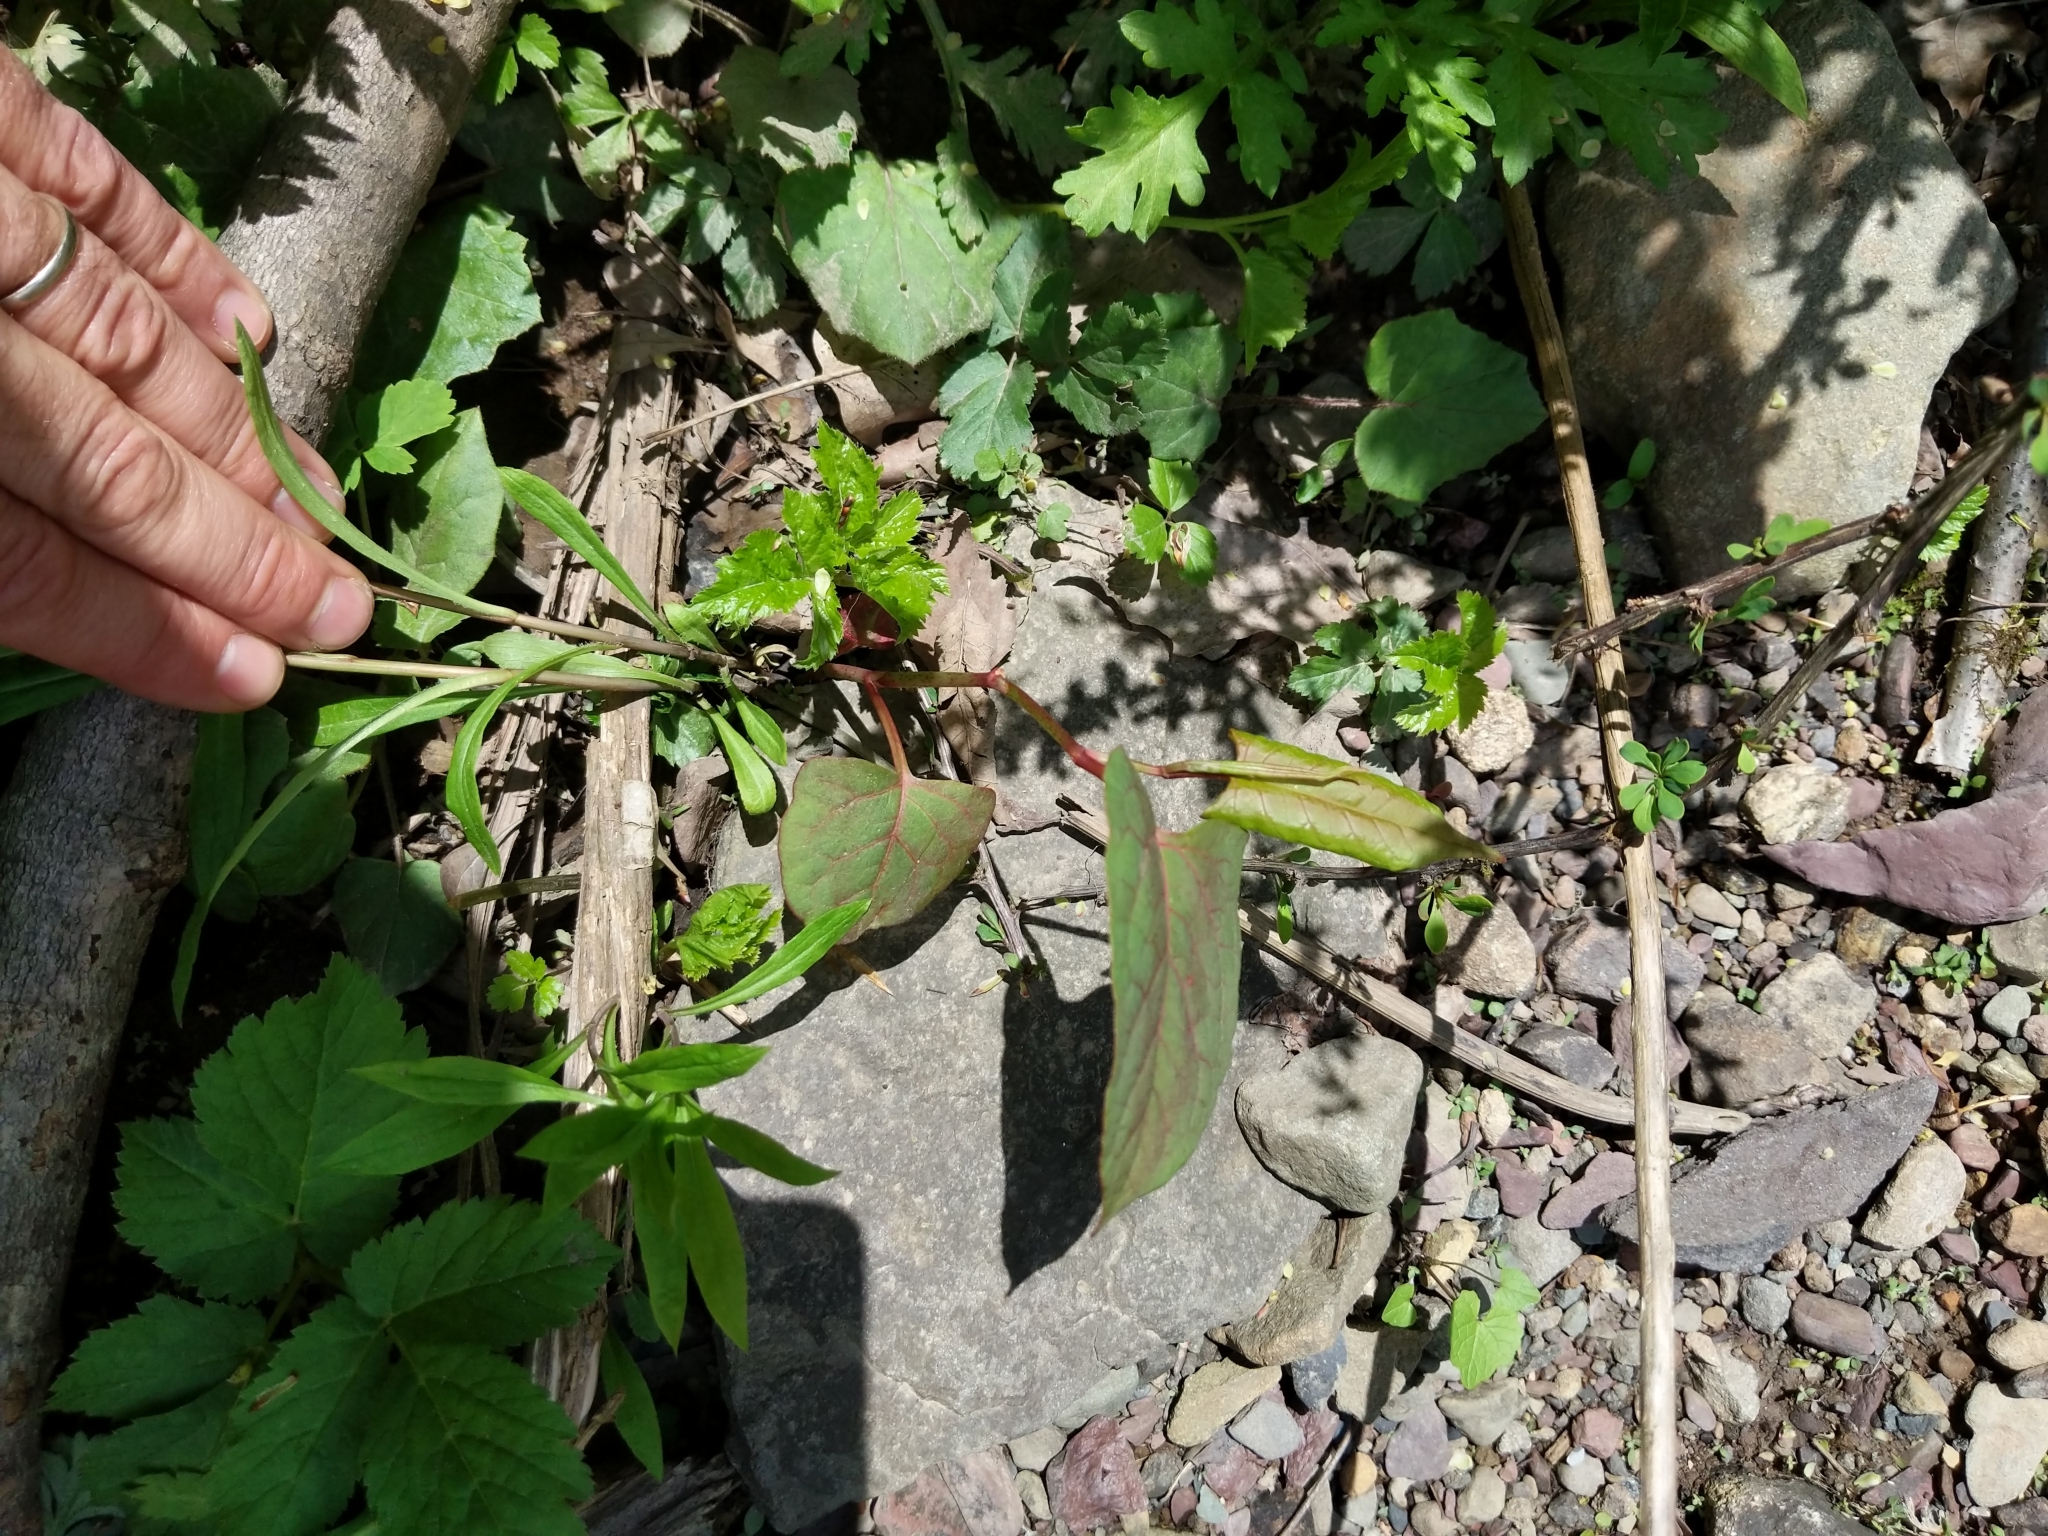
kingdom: Plantae
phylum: Tracheophyta
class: Magnoliopsida
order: Caryophyllales
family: Polygonaceae
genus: Reynoutria
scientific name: Reynoutria japonica
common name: Japanese knotweed
